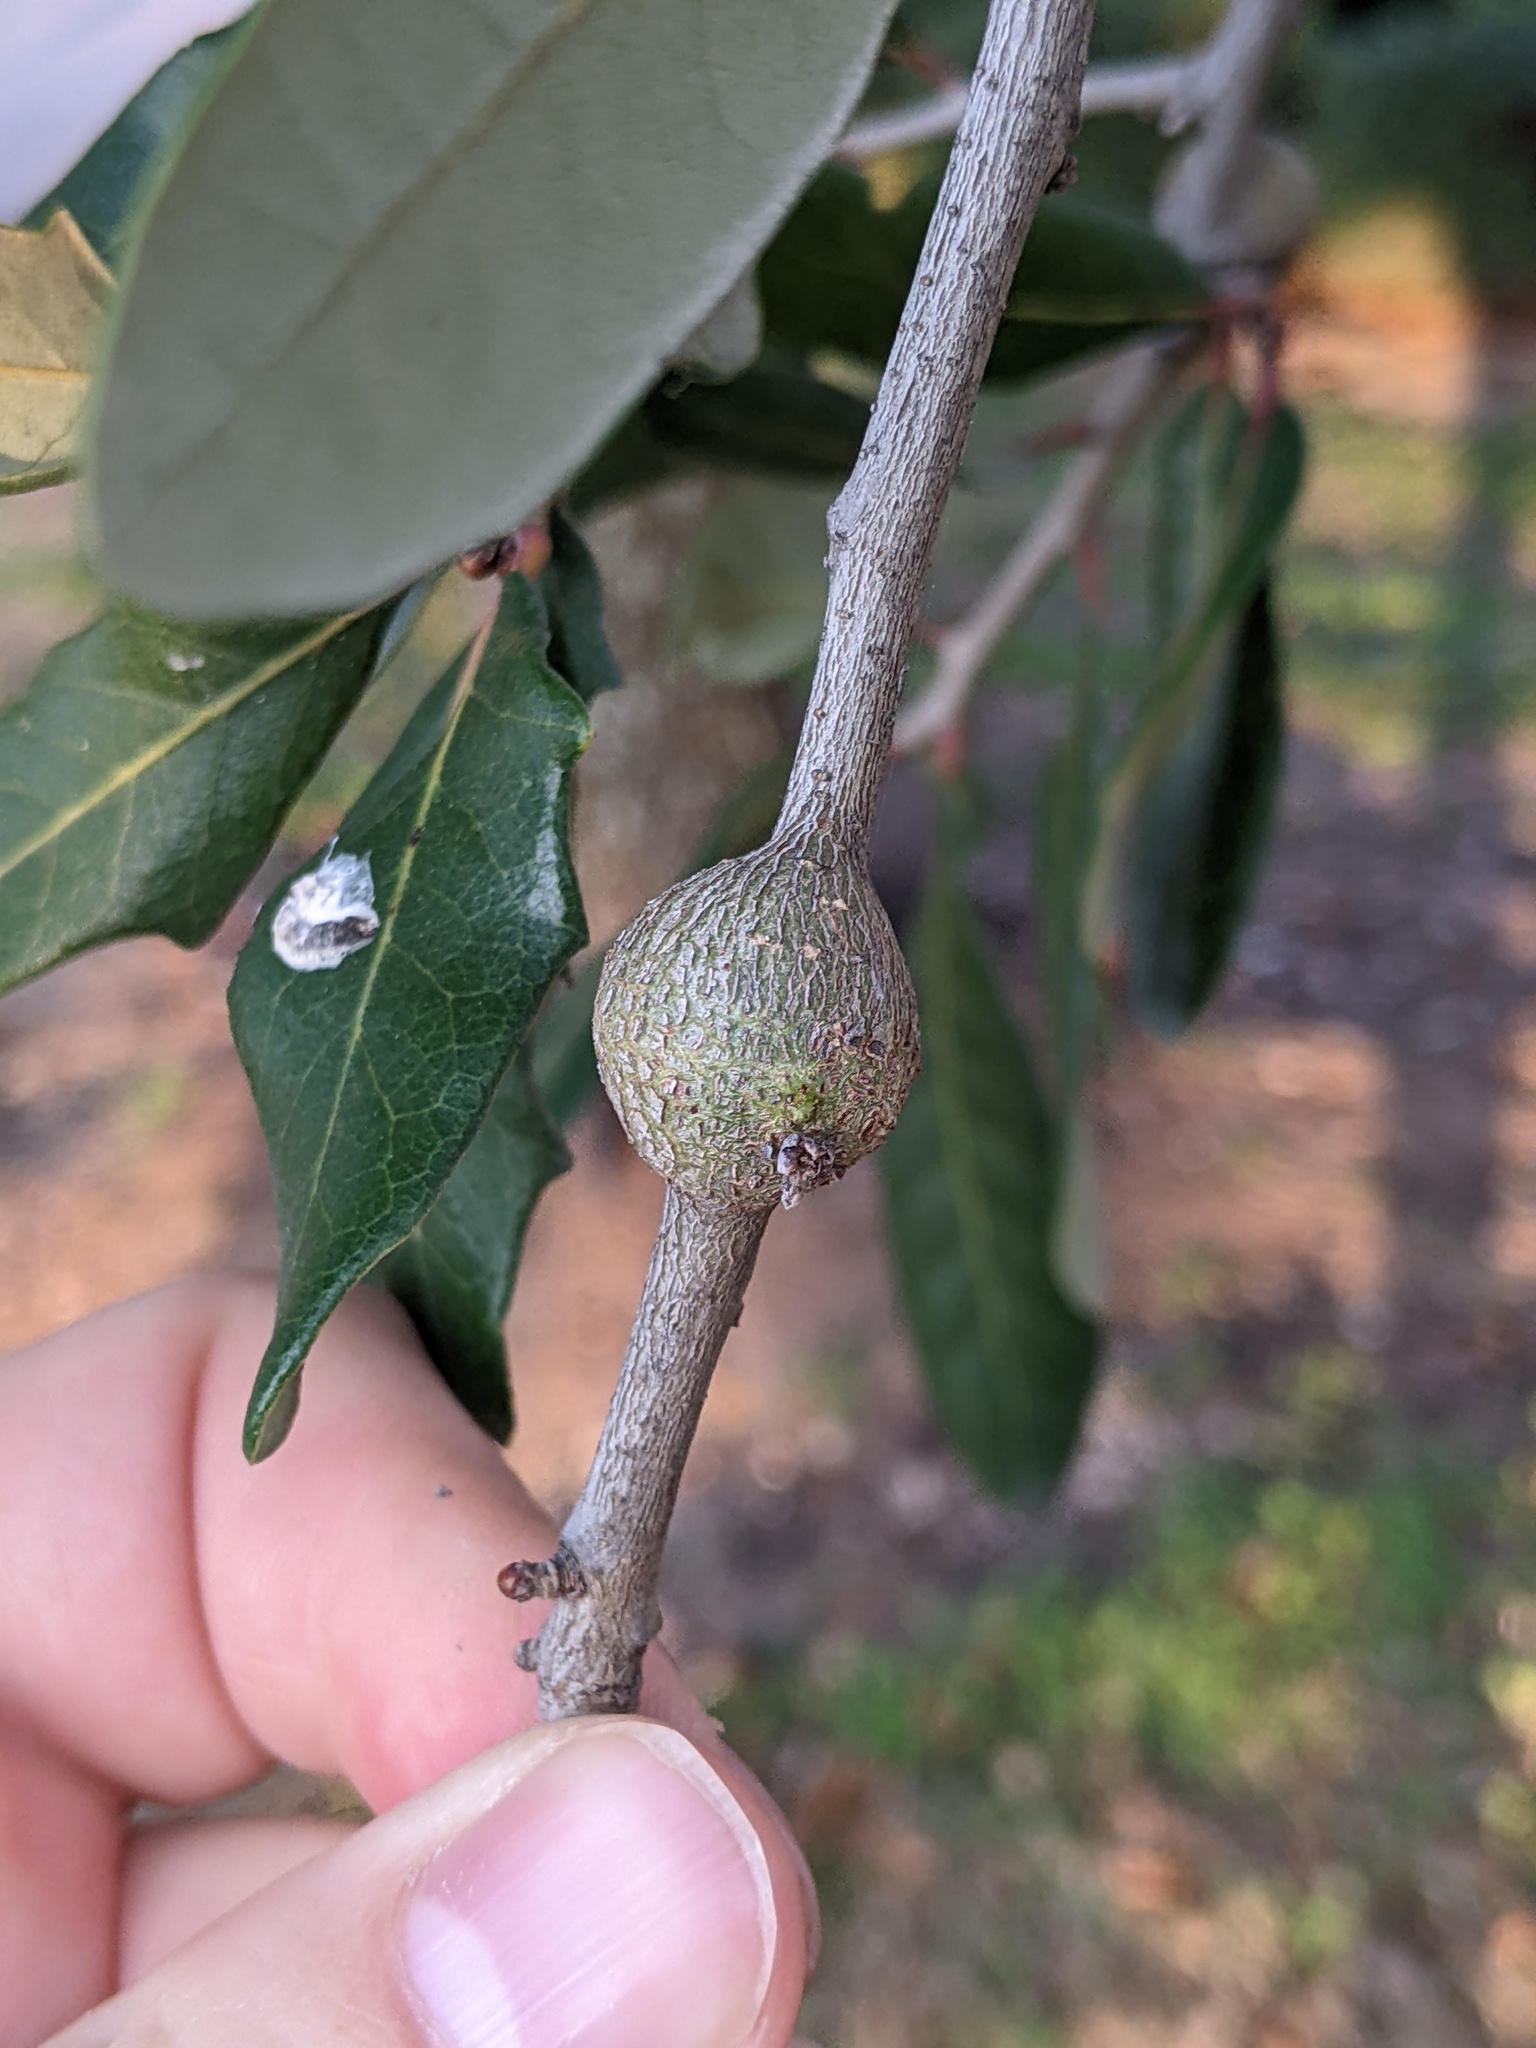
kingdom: Animalia
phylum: Arthropoda
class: Insecta
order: Hymenoptera
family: Cynipidae
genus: Callirhytis
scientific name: Callirhytis
